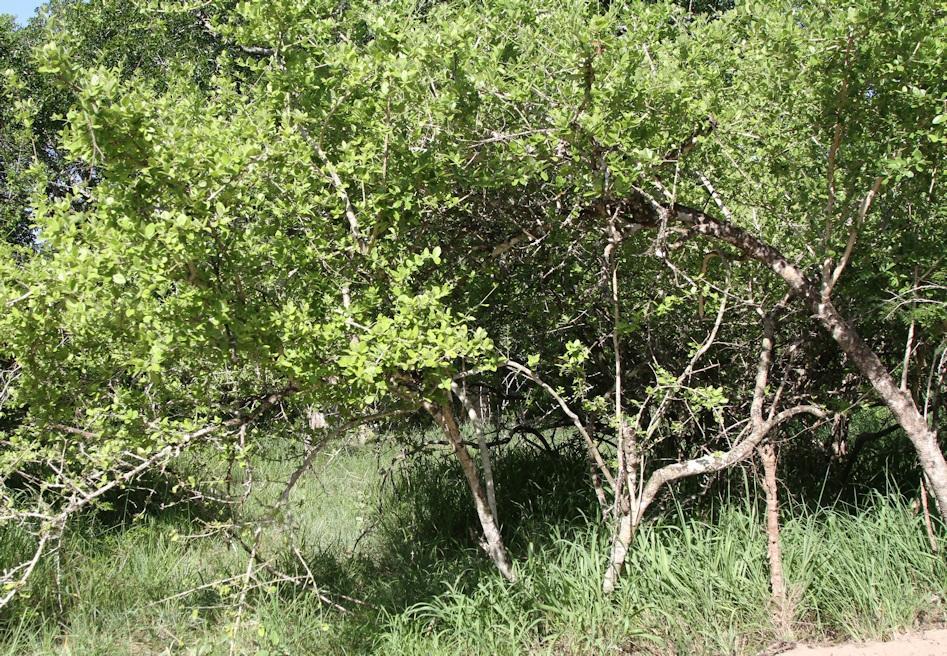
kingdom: Plantae
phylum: Tracheophyta
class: Magnoliopsida
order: Gentianales
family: Loganiaceae
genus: Strychnos
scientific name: Strychnos madagascariensis
